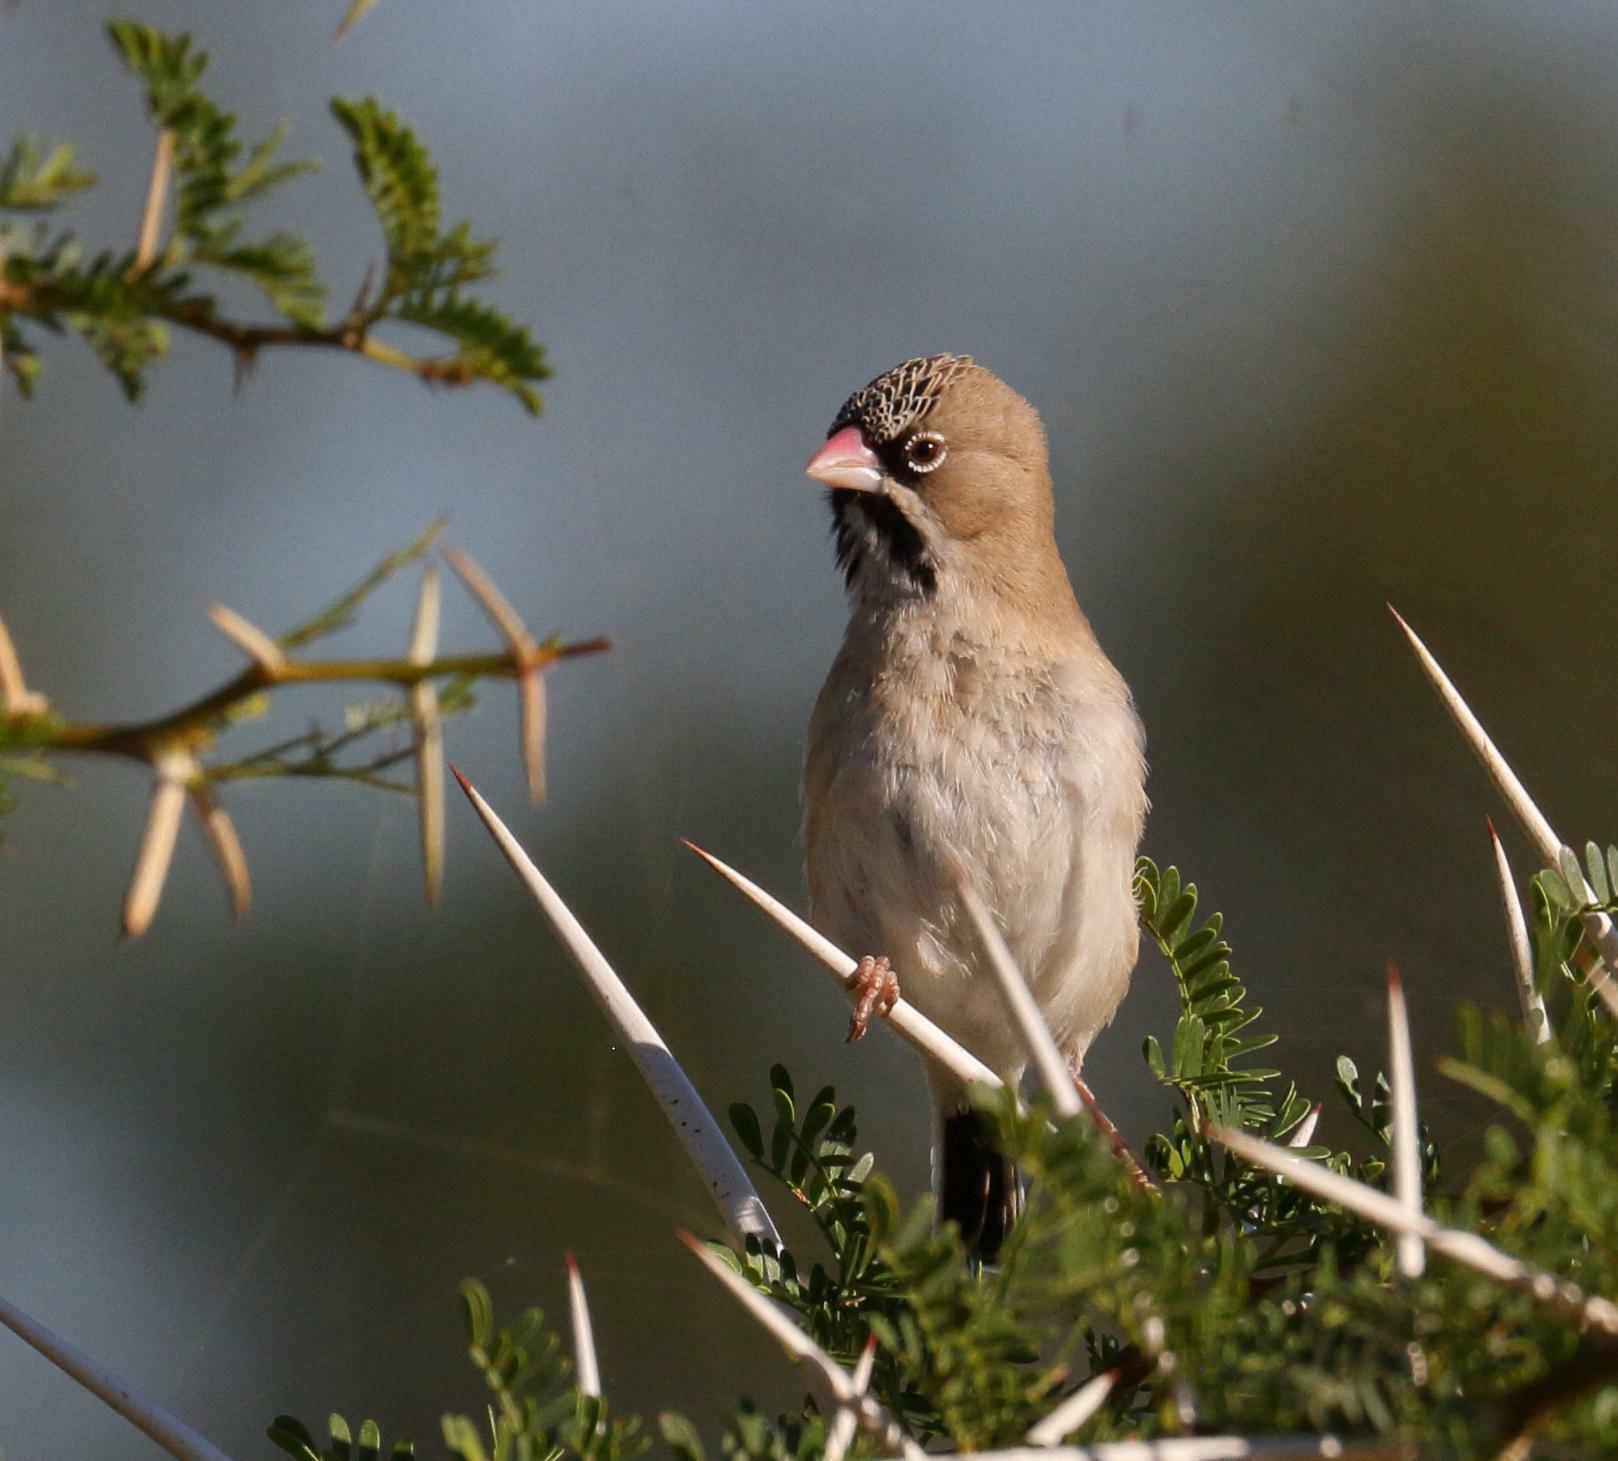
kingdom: Animalia
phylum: Chordata
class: Aves
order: Passeriformes
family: Ploceidae
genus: Sporopipes
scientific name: Sporopipes squamifrons
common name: Scaly-feathered weaver
